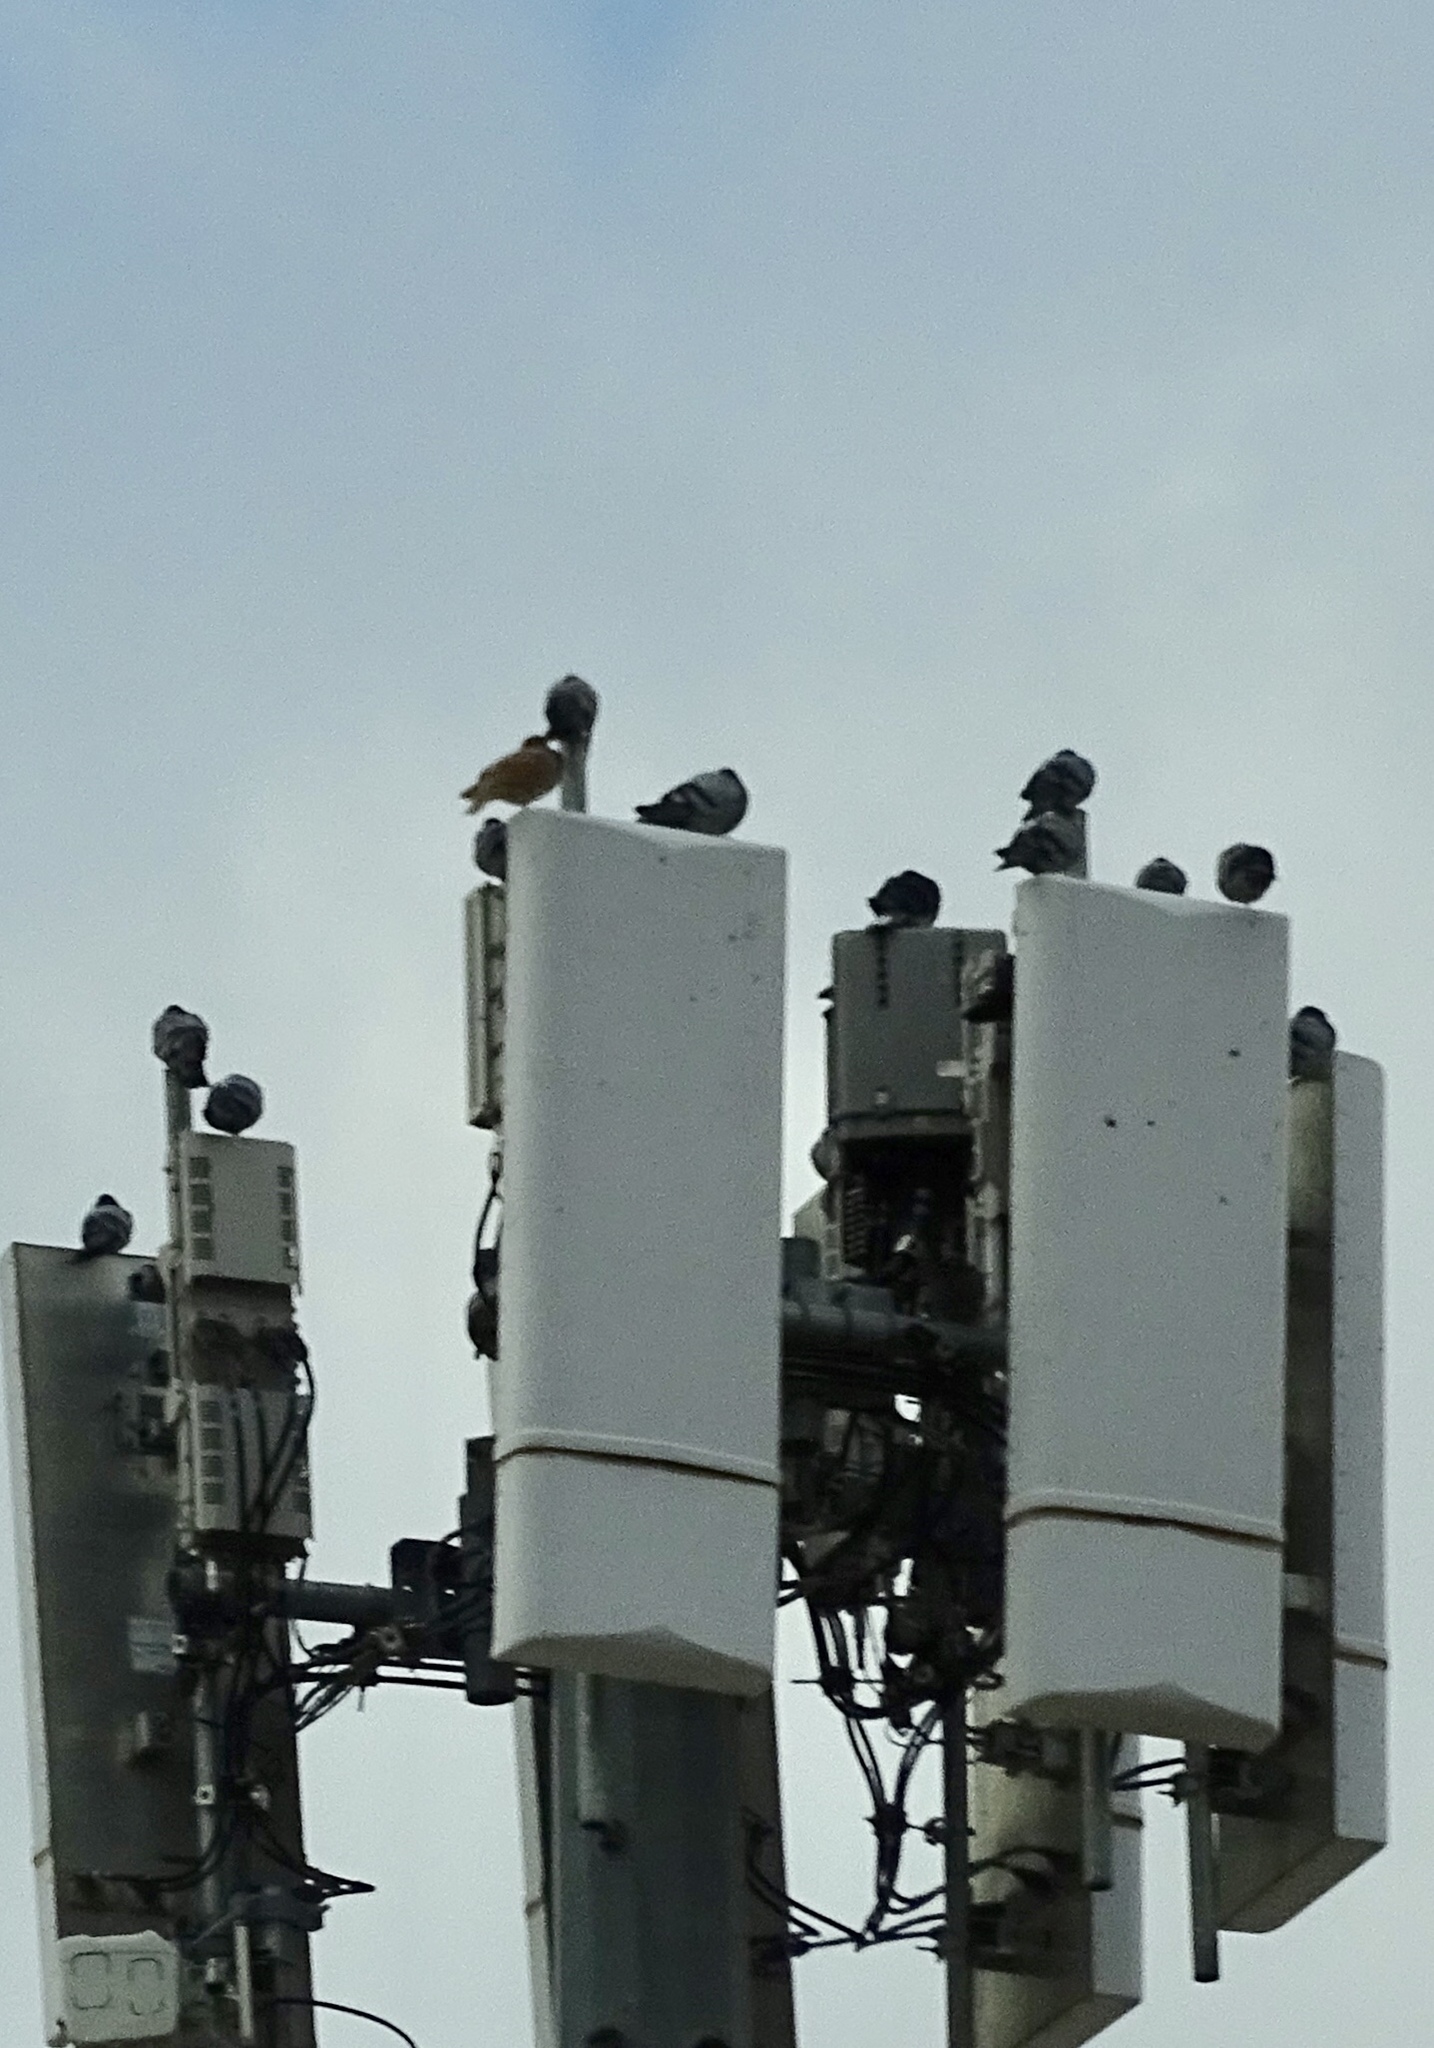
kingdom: Animalia
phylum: Chordata
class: Aves
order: Columbiformes
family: Columbidae
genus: Columba
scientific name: Columba livia
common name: Rock pigeon
